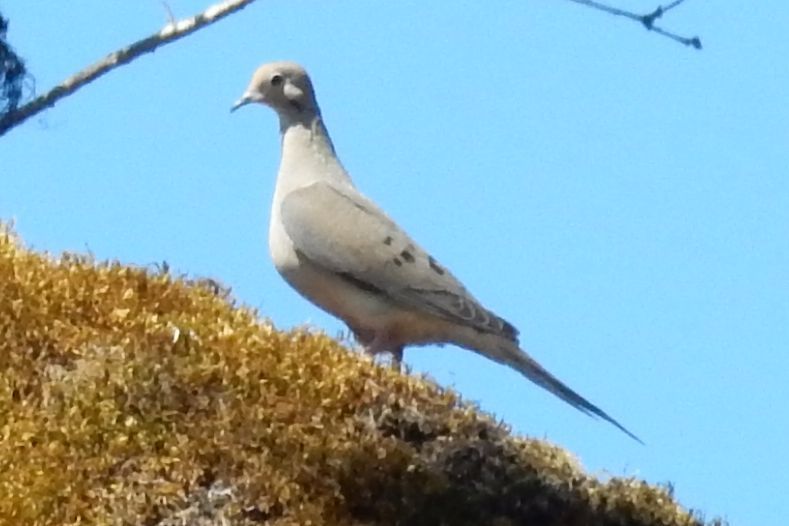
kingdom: Animalia
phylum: Chordata
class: Aves
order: Columbiformes
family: Columbidae
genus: Zenaida
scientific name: Zenaida macroura
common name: Mourning dove
